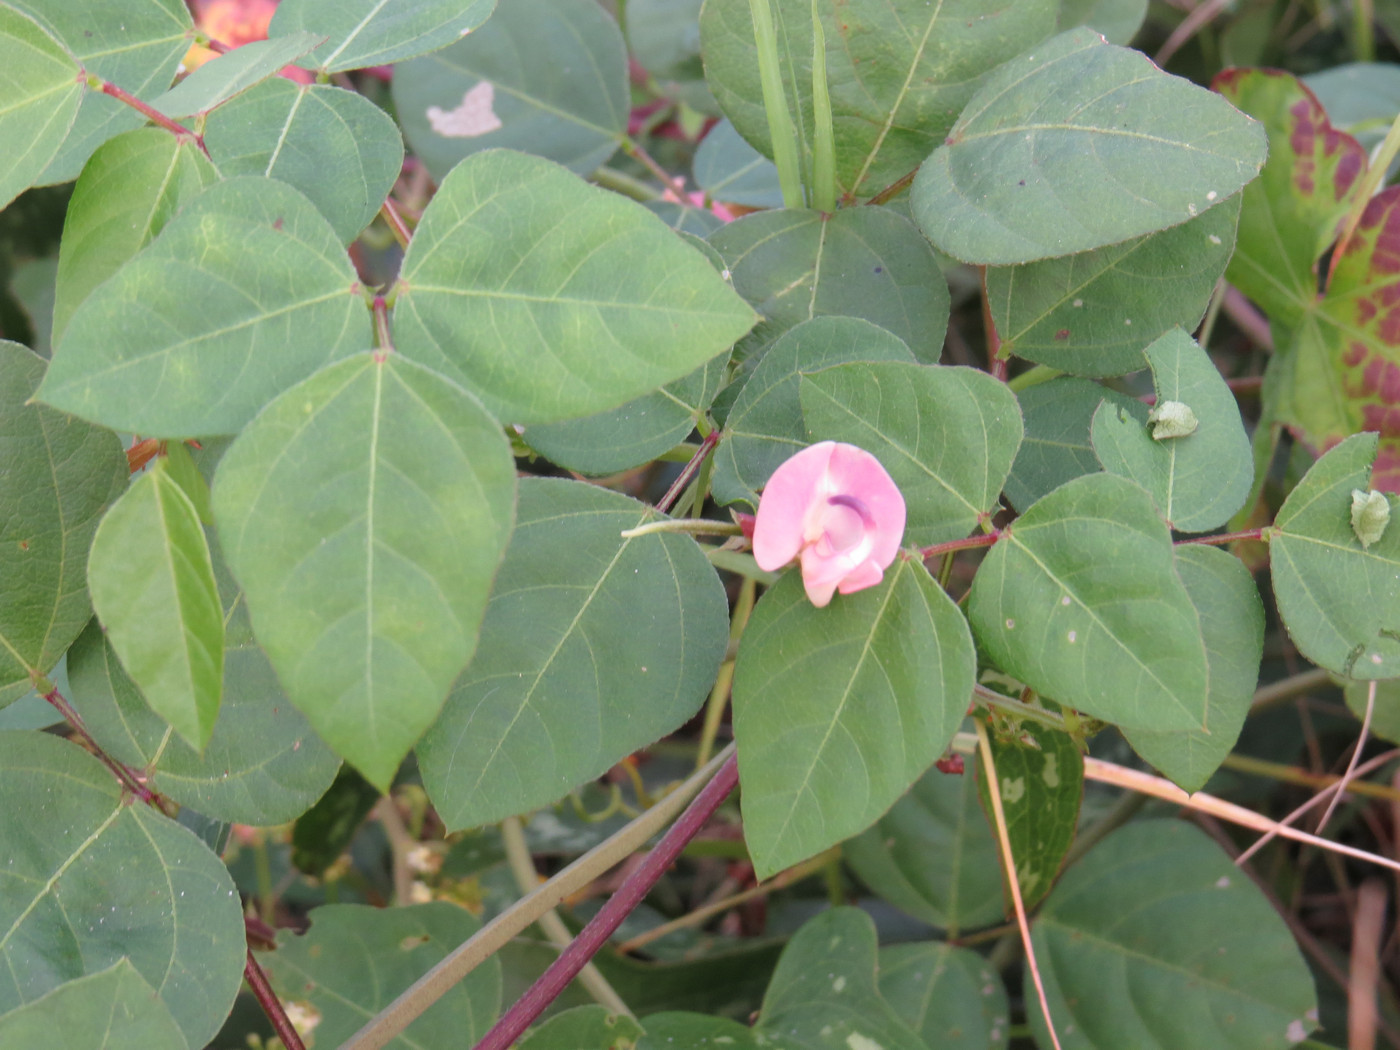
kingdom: Plantae
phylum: Tracheophyta
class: Magnoliopsida
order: Fabales
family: Fabaceae
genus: Strophostyles
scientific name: Strophostyles helvola
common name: Trailing wild bean
